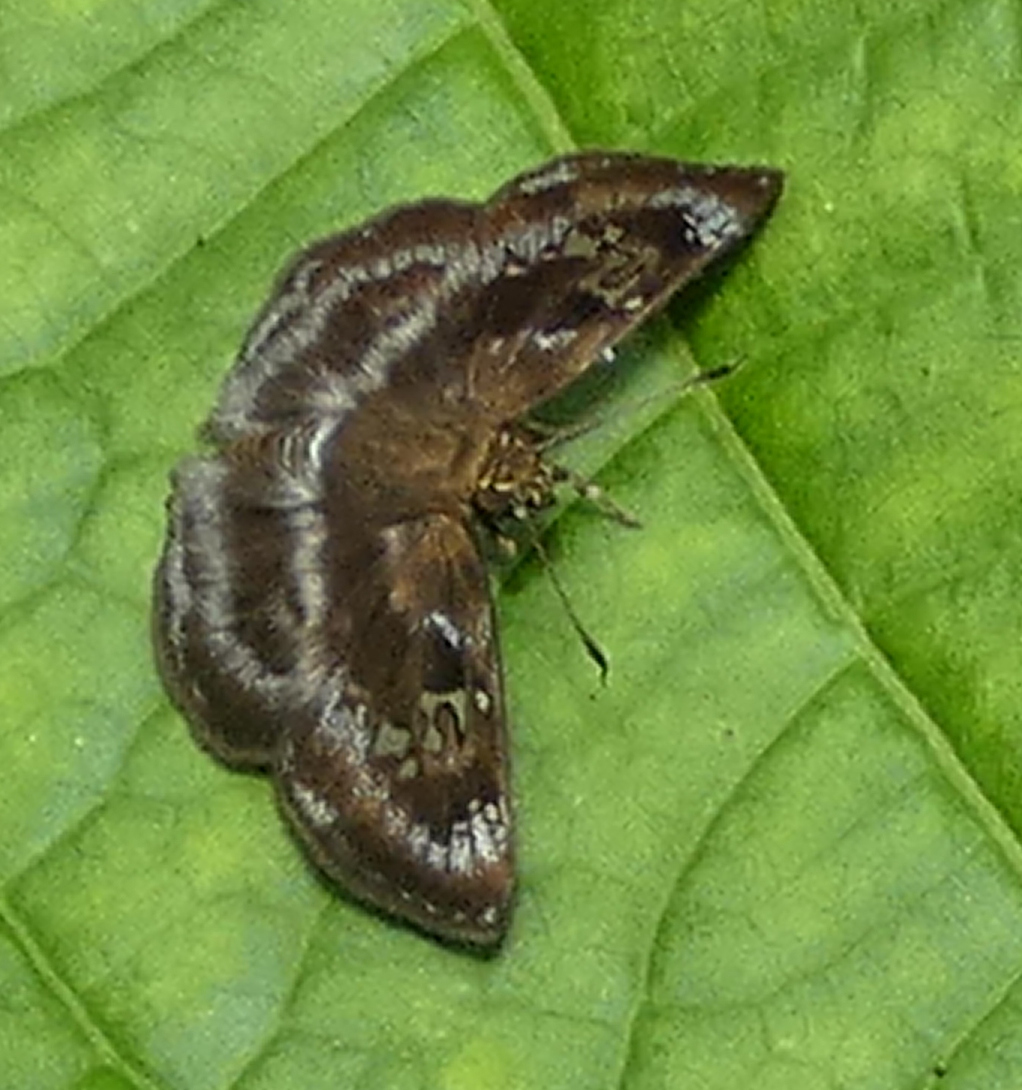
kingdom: Animalia
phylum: Arthropoda
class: Insecta
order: Lepidoptera
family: Hesperiidae
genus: Quadrus
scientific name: Quadrus cerialis
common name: Common blue-skipper
